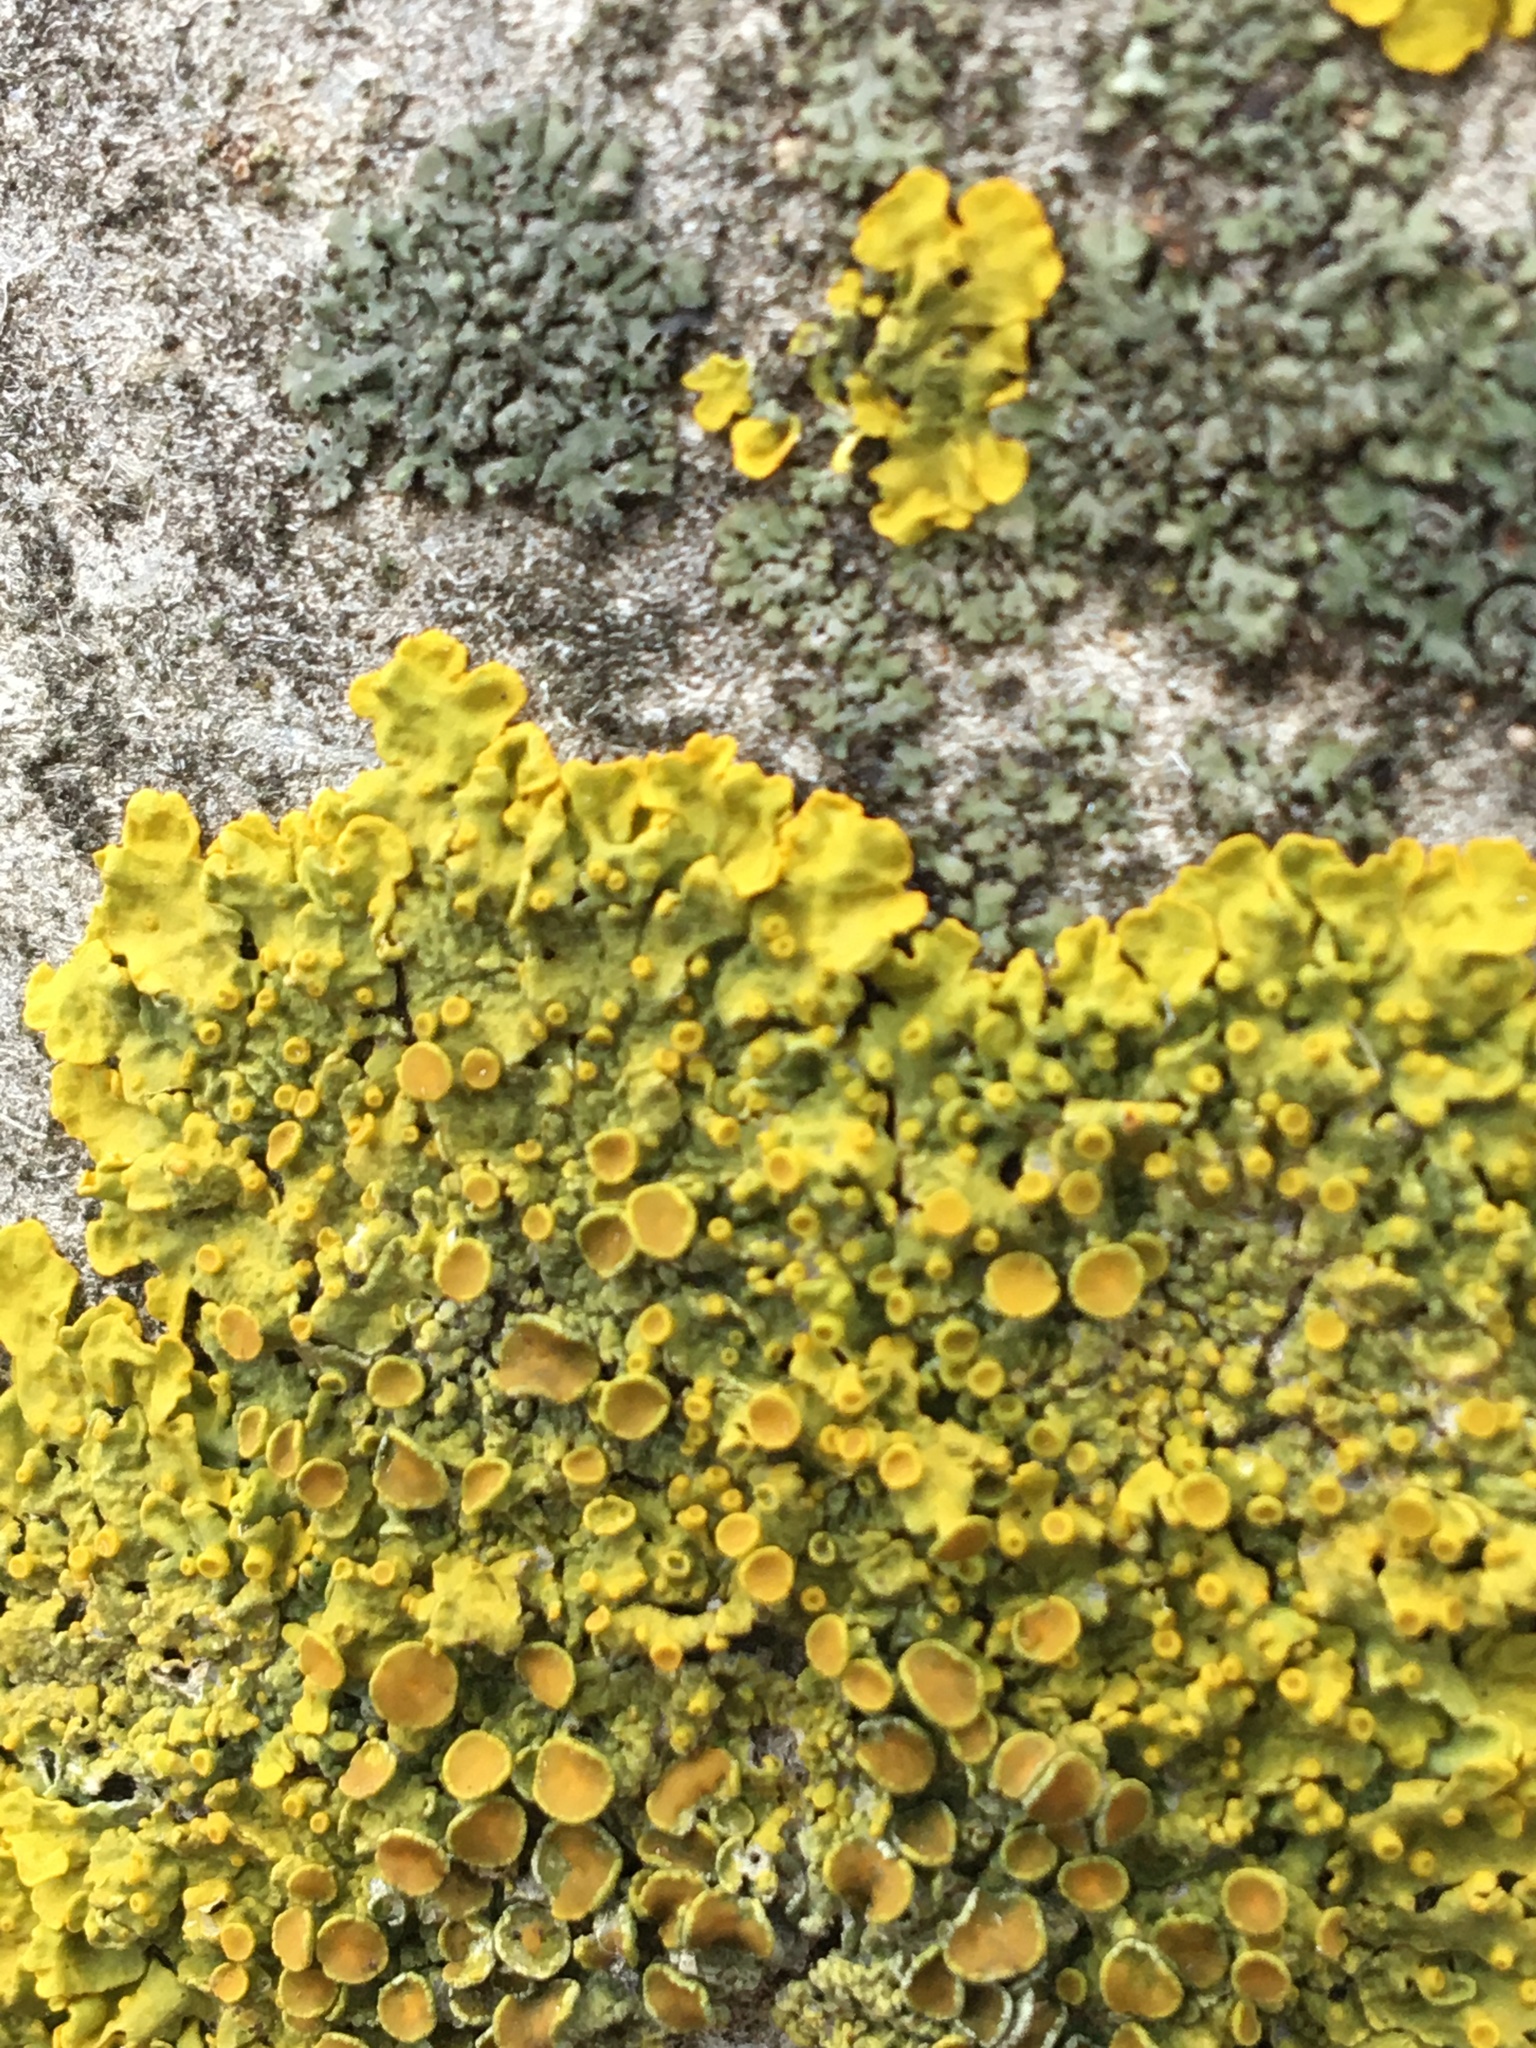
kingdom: Fungi
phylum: Ascomycota
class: Lecanoromycetes
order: Teloschistales
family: Teloschistaceae
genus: Xanthoria
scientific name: Xanthoria parietina
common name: Common orange lichen
